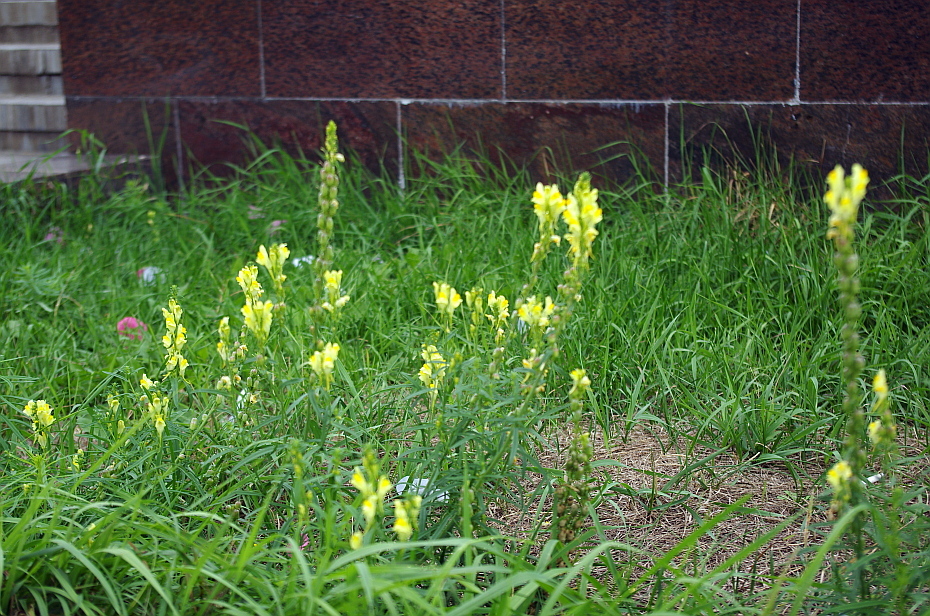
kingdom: Plantae
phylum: Tracheophyta
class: Magnoliopsida
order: Lamiales
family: Plantaginaceae
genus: Linaria
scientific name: Linaria vulgaris
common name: Butter and eggs
